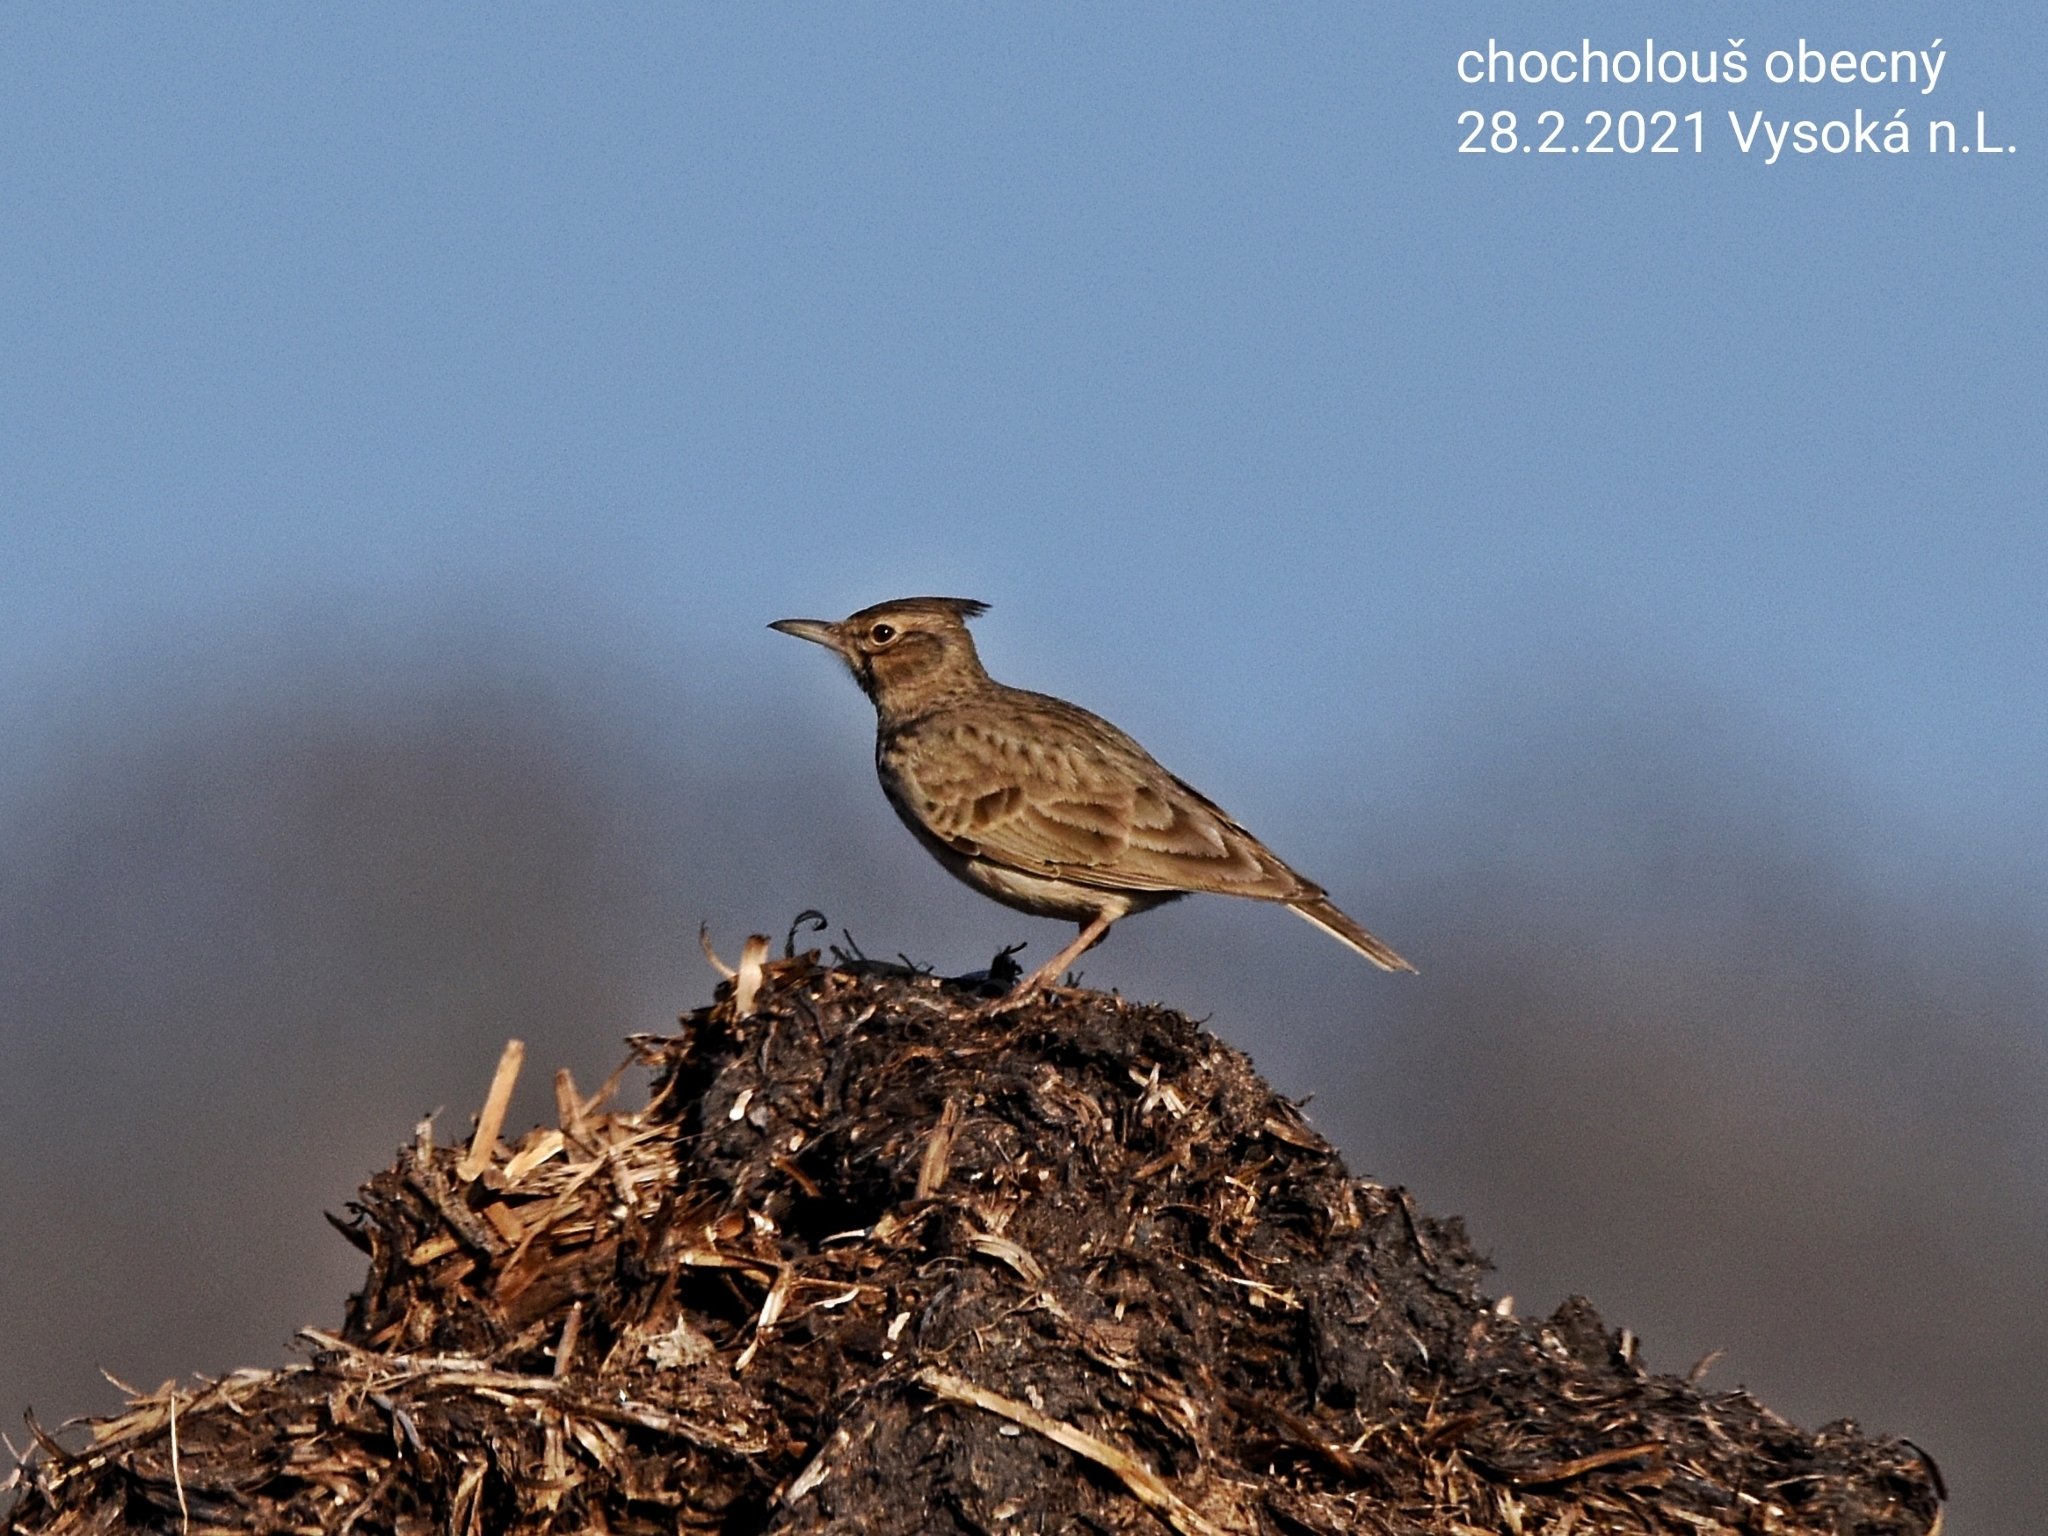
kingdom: Animalia
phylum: Chordata
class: Aves
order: Passeriformes
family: Alaudidae
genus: Galerida
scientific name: Galerida cristata
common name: Crested lark
